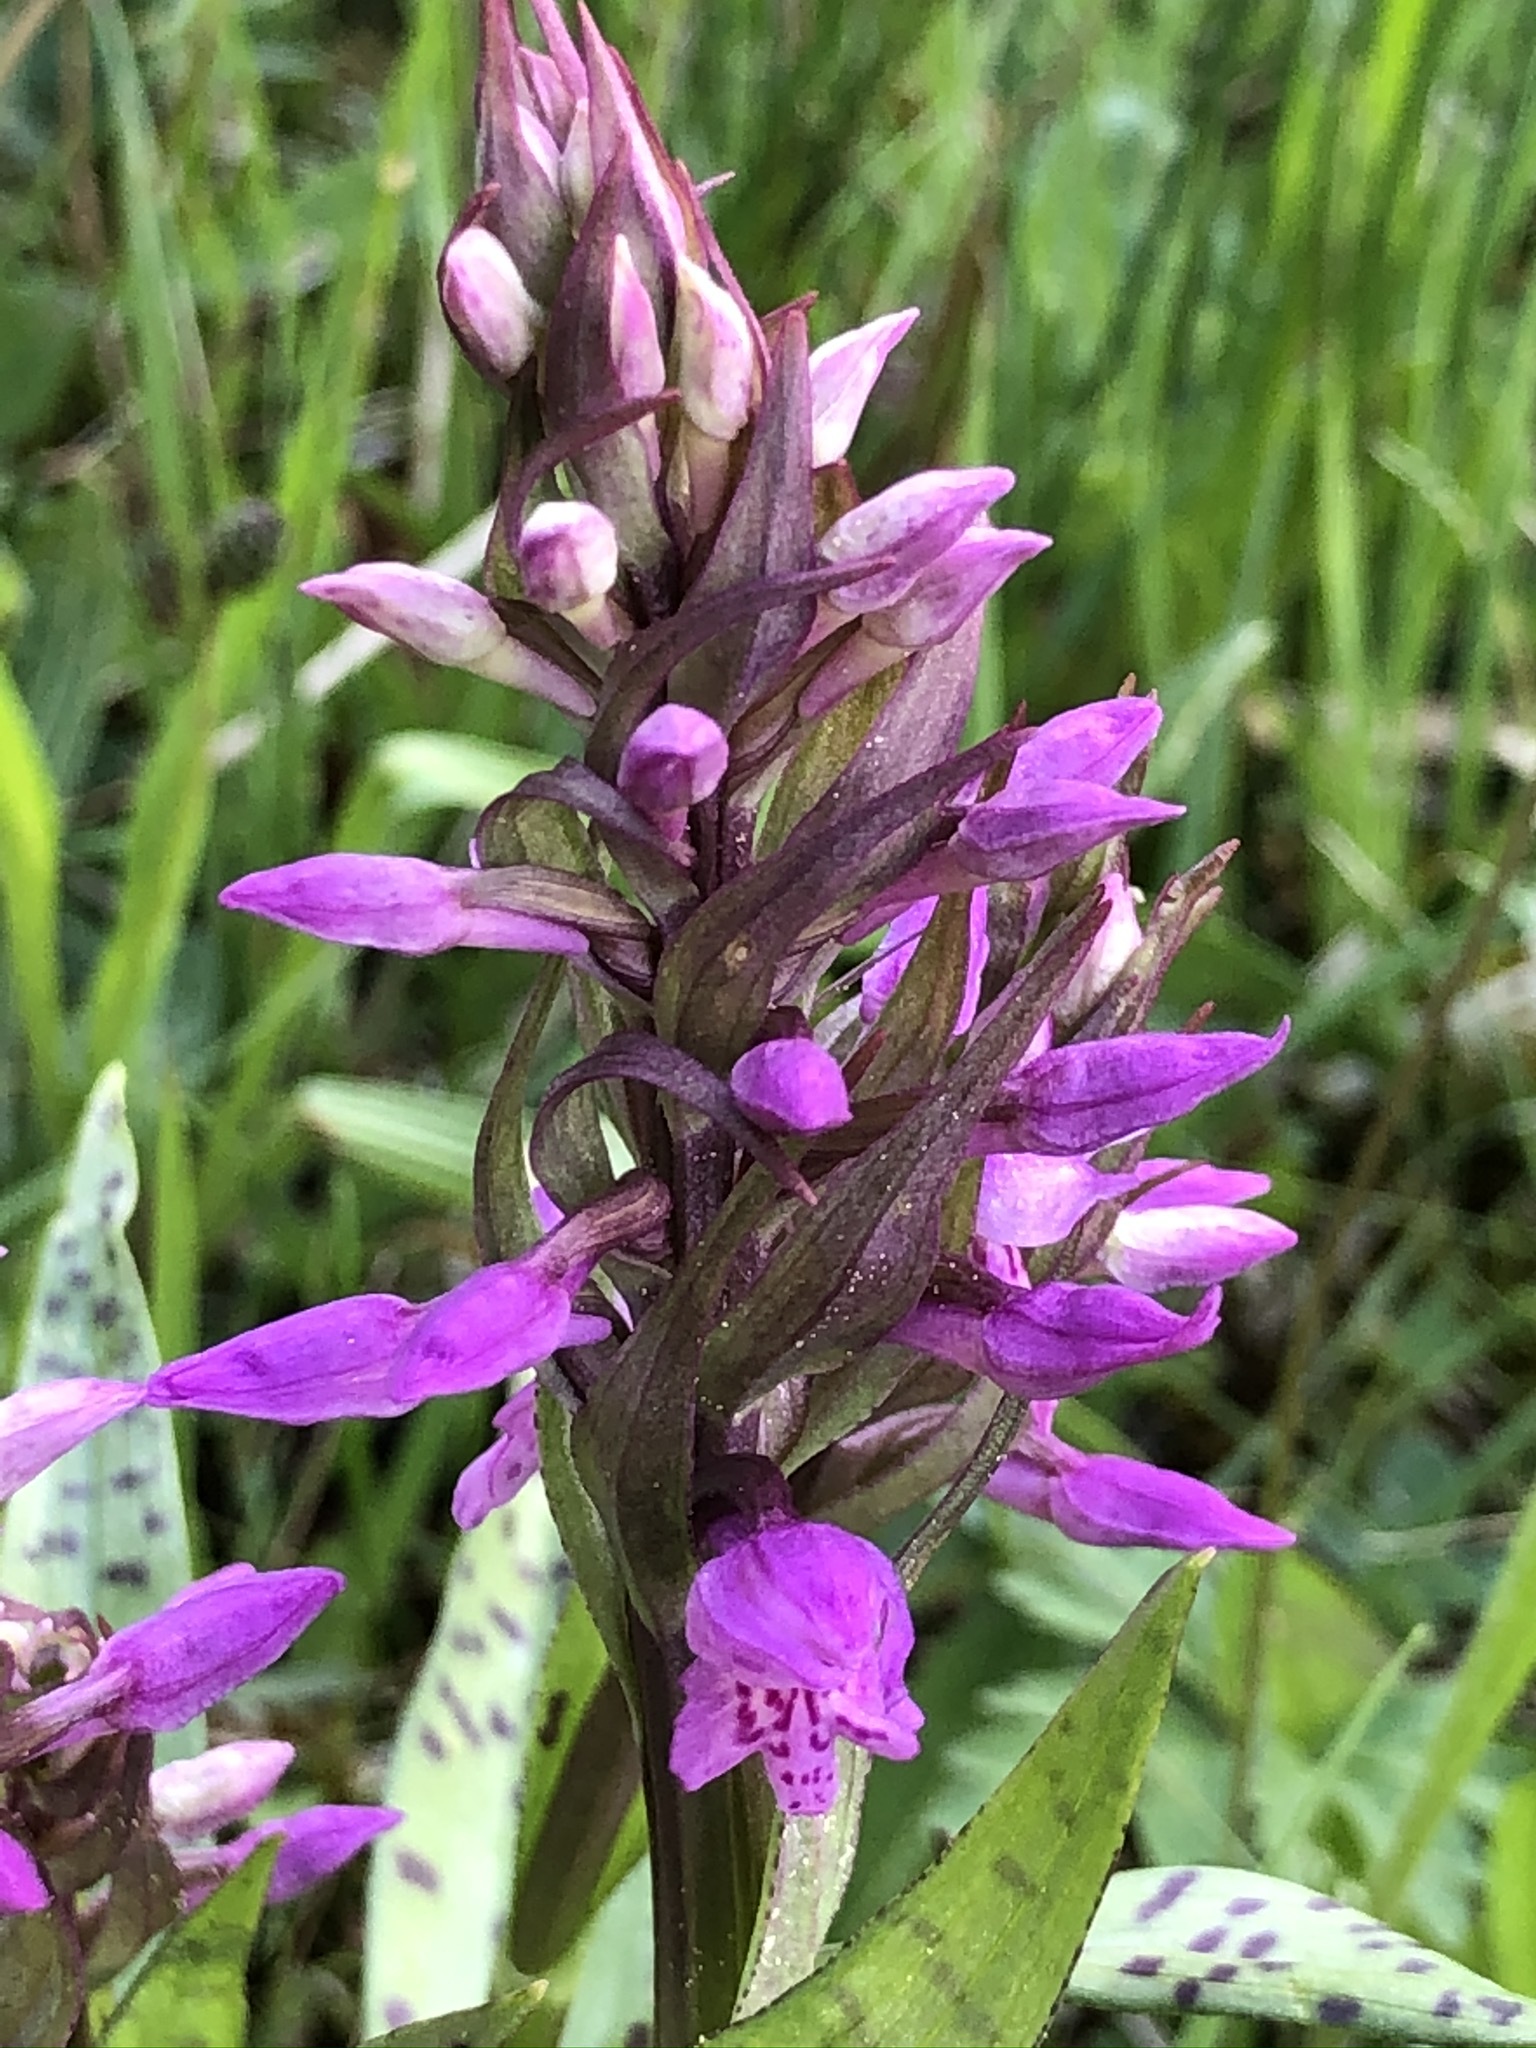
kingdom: Plantae
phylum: Tracheophyta
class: Liliopsida
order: Asparagales
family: Orchidaceae
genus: Dactylorhiza
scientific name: Dactylorhiza majalis
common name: Marsh orchid
